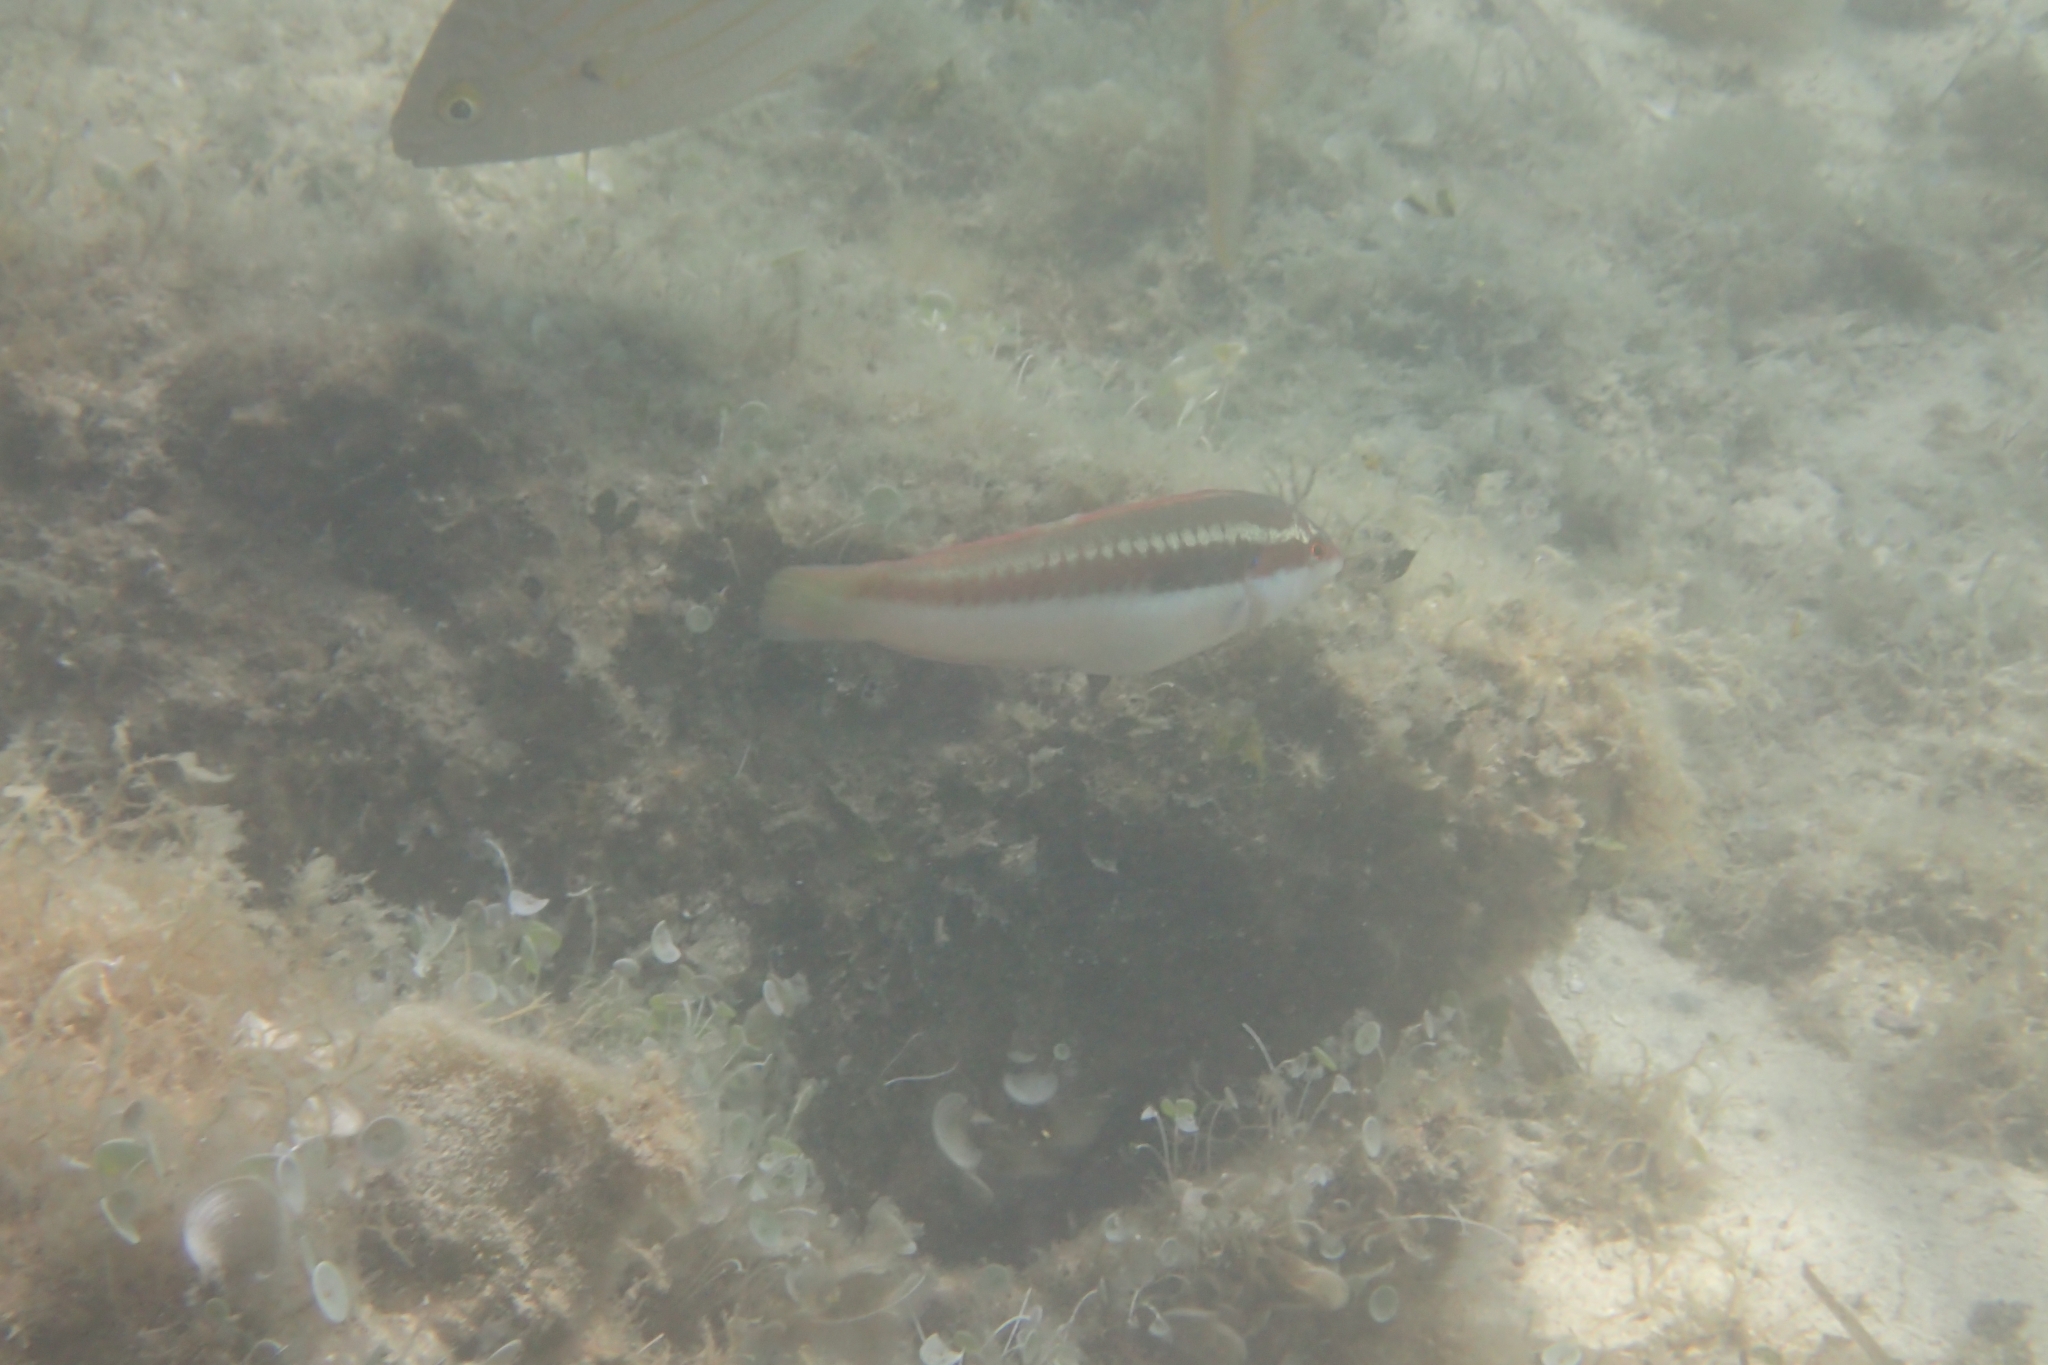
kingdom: Animalia
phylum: Chordata
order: Perciformes
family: Labridae
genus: Coris
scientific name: Coris julis
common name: Rainbow wrasse
